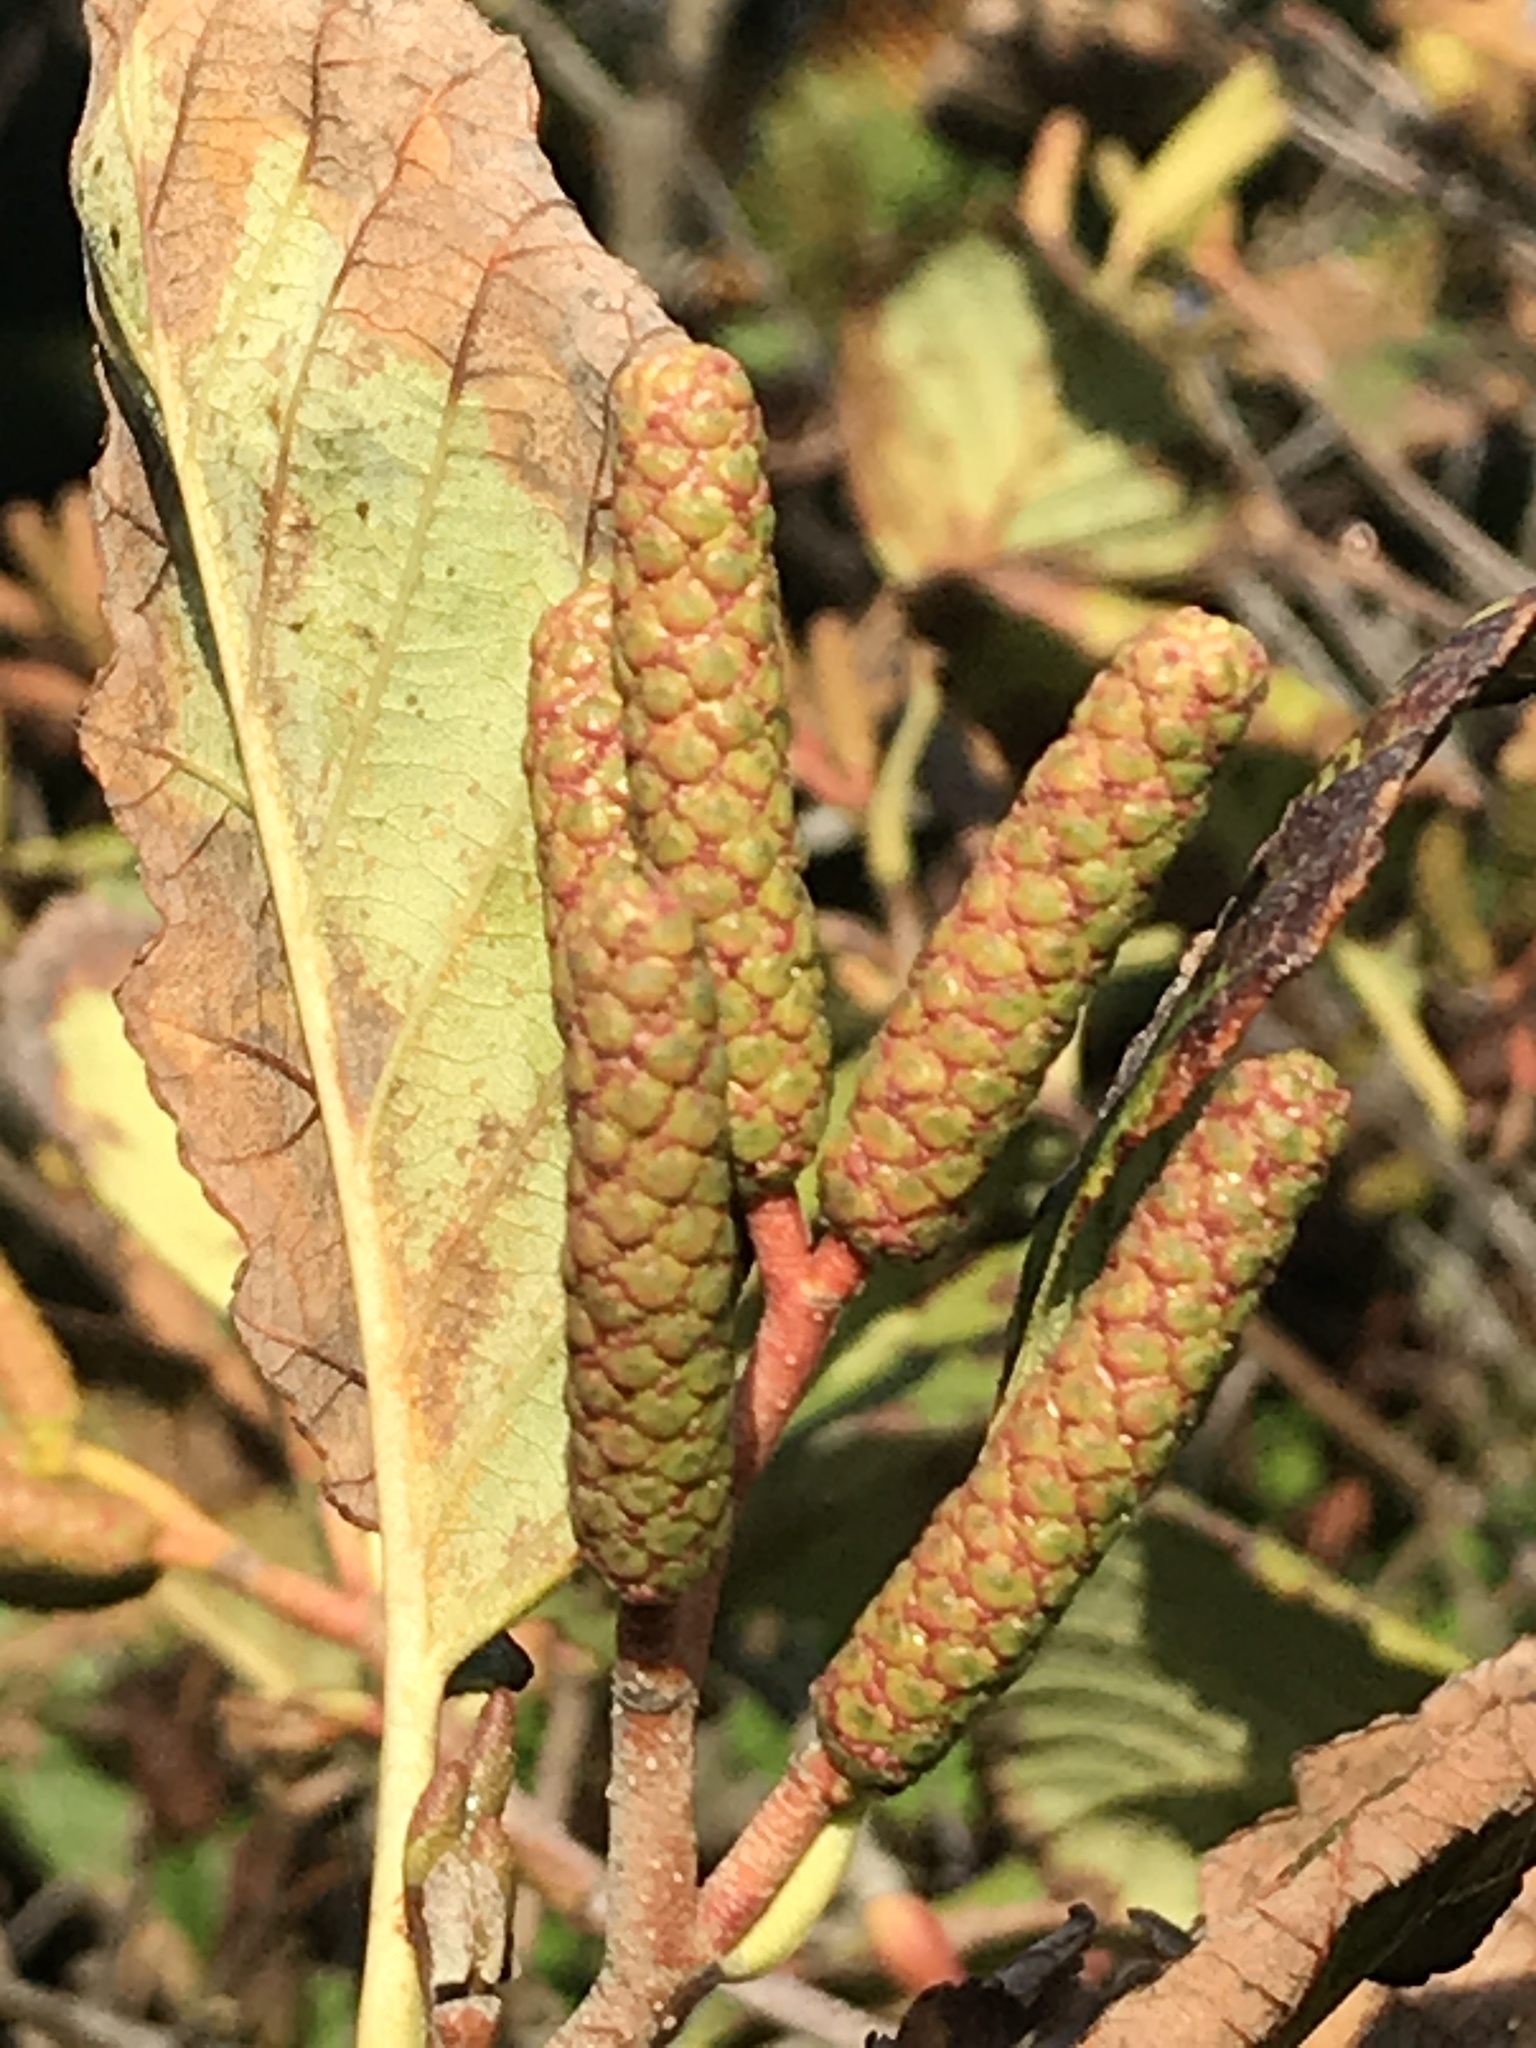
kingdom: Plantae
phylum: Tracheophyta
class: Magnoliopsida
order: Fagales
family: Betulaceae
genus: Alnus
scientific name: Alnus rubra
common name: Red alder
